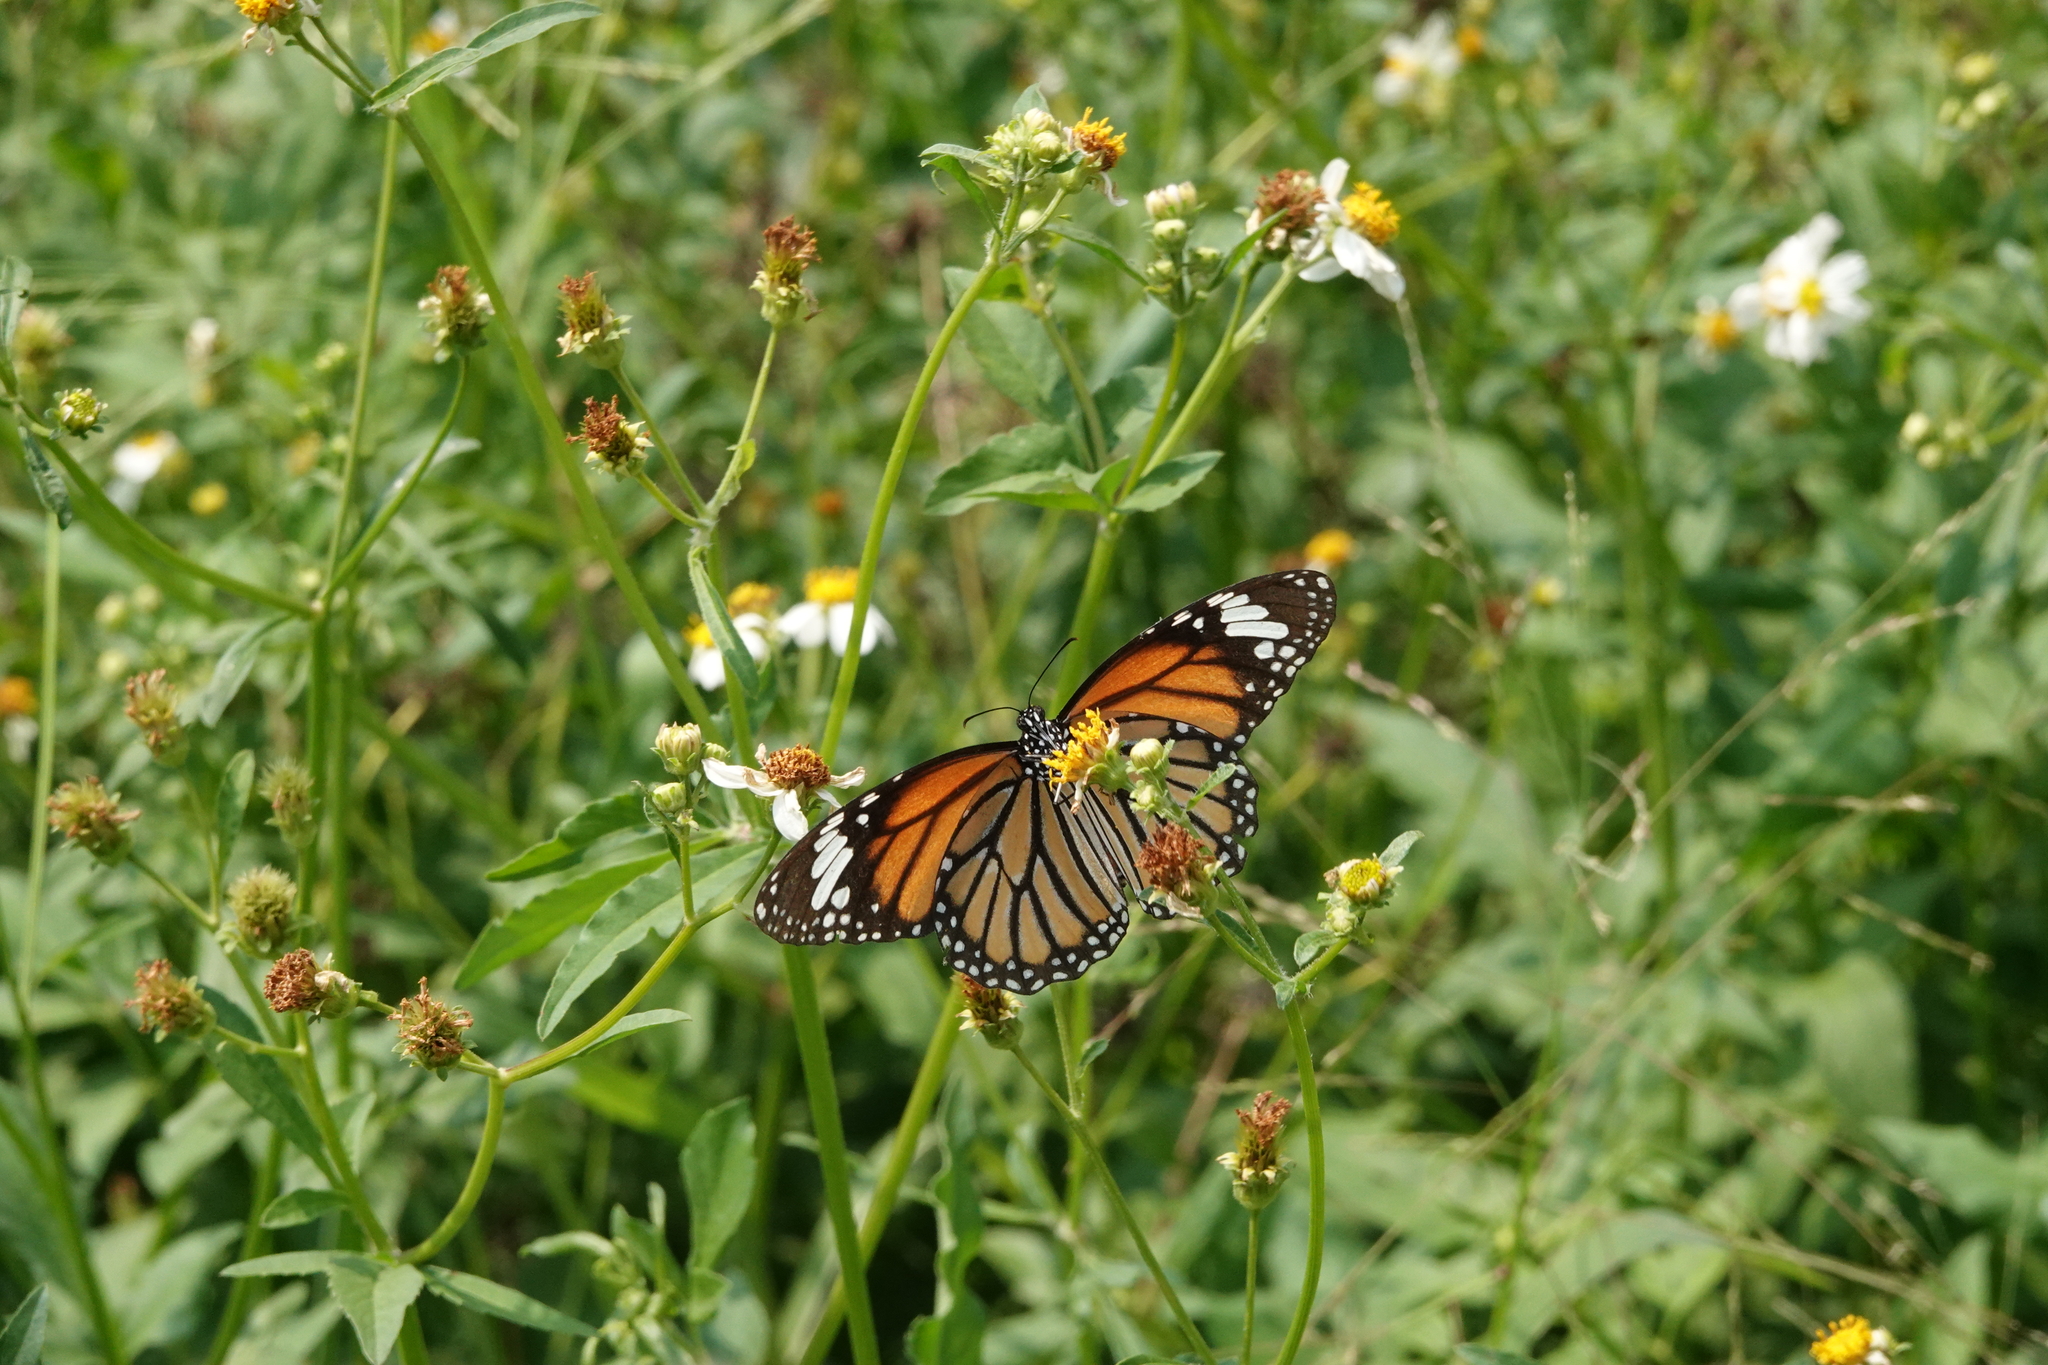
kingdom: Animalia
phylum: Arthropoda
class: Insecta
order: Lepidoptera
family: Nymphalidae
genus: Danaus
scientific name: Danaus genutia
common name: Common tiger butterfly
